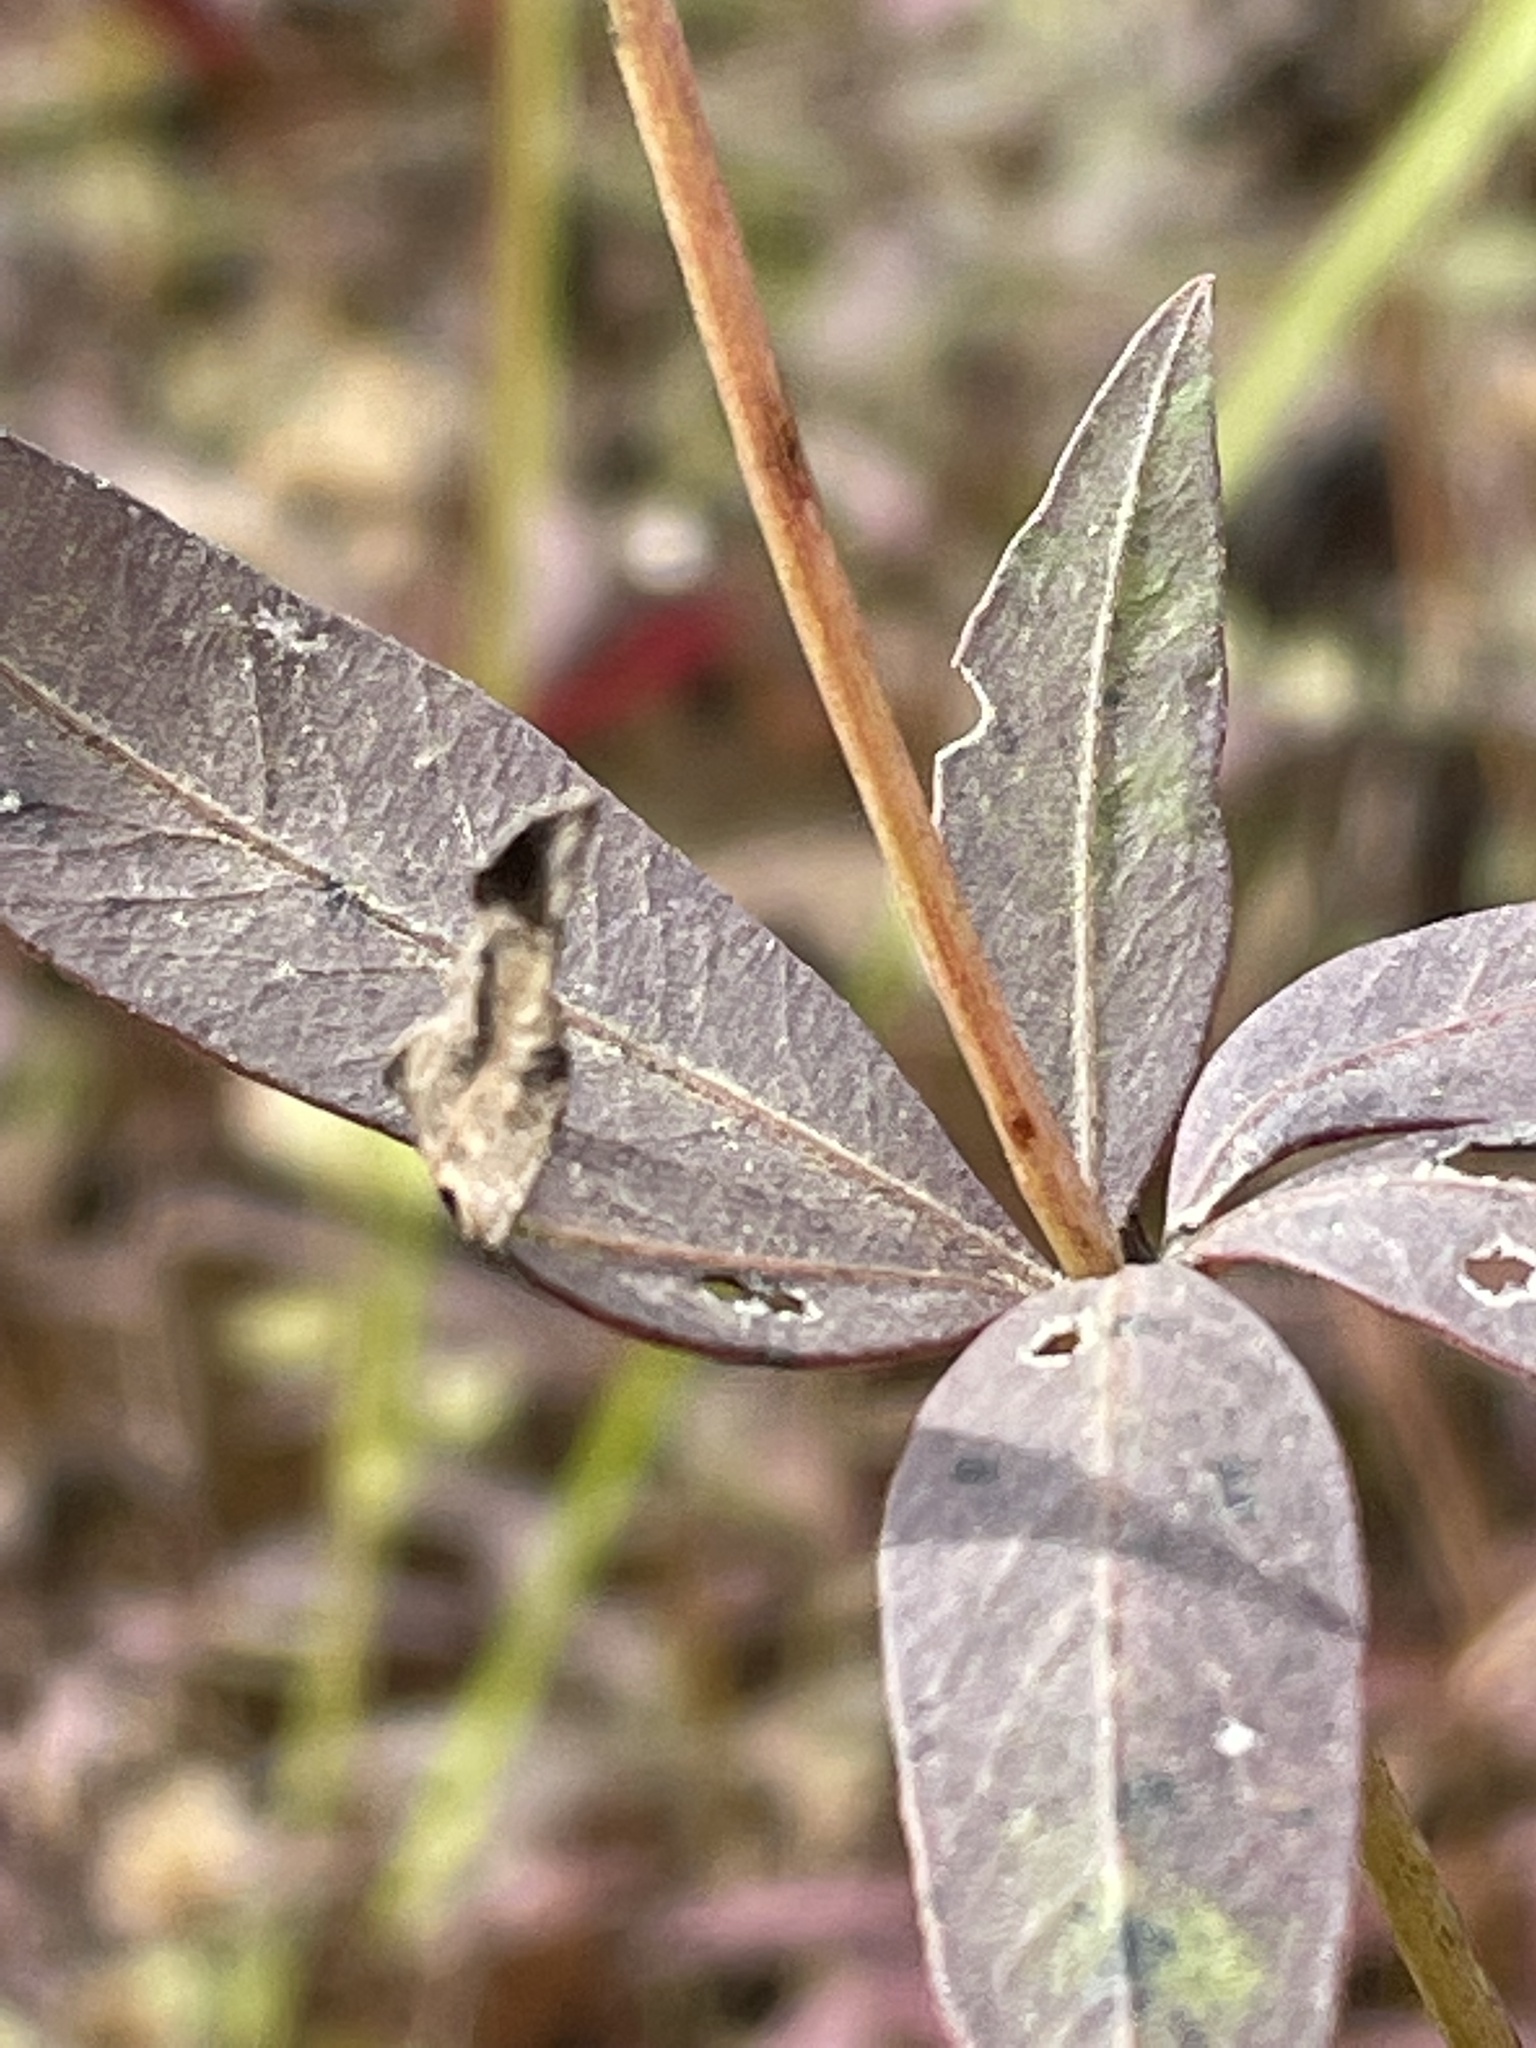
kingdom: Plantae
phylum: Tracheophyta
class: Magnoliopsida
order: Asterales
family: Asteraceae
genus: Coreopsis
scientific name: Coreopsis major
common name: Forest tickseed
